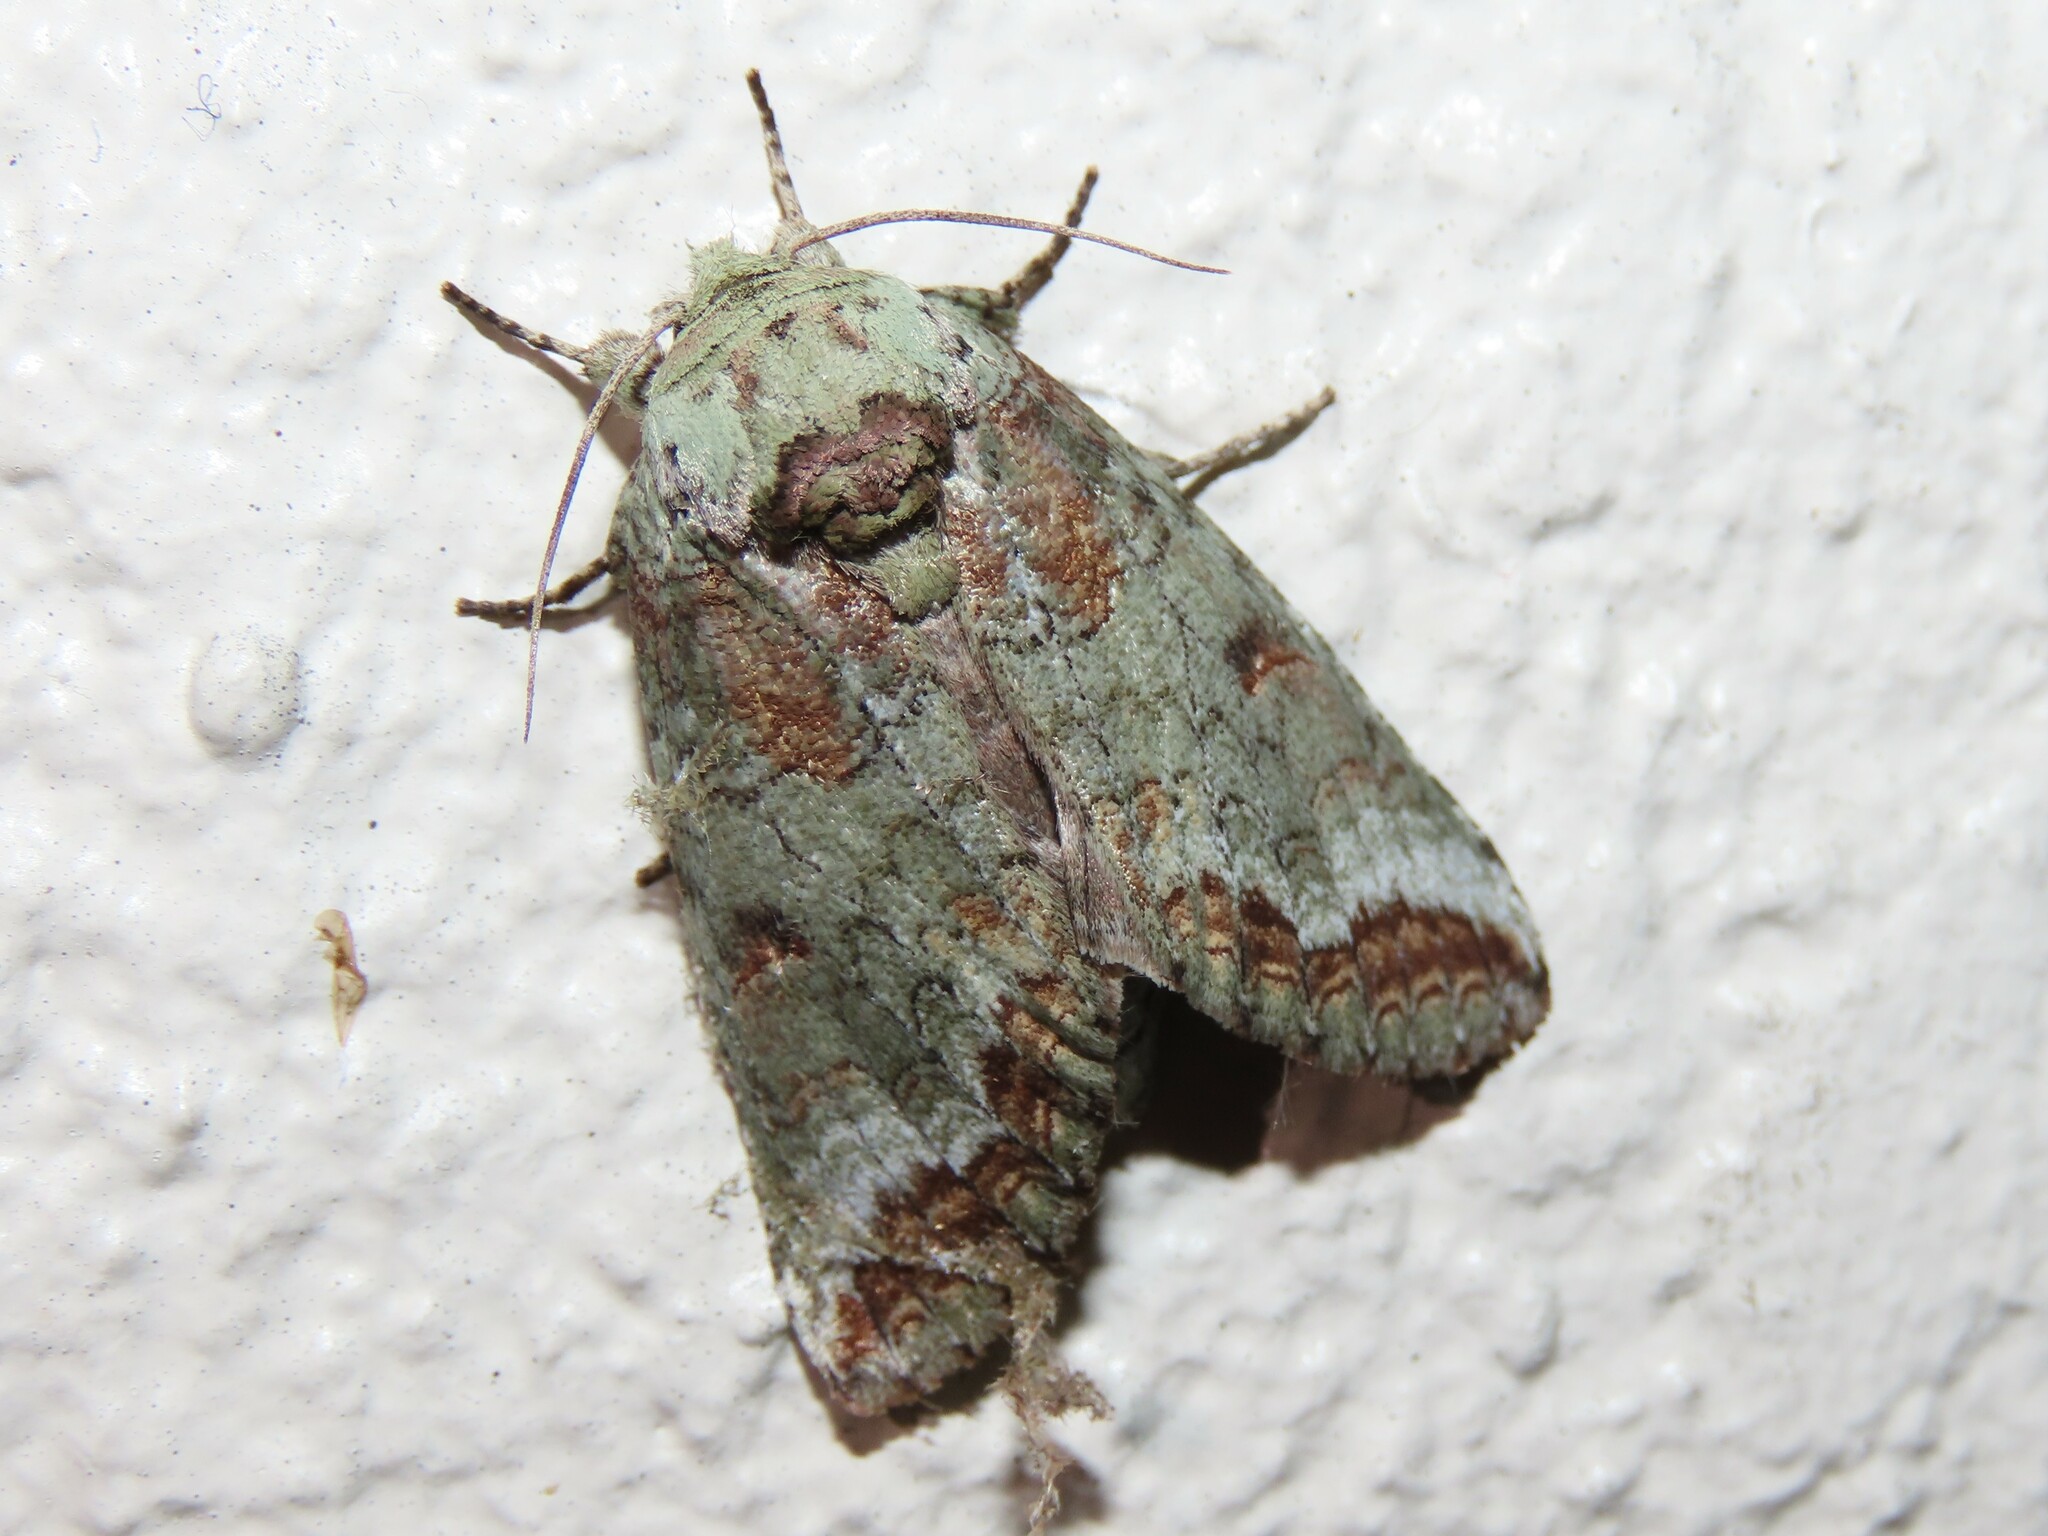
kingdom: Animalia
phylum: Arthropoda
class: Insecta
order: Lepidoptera
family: Notodontidae
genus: Heterocampa
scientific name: Heterocampa astarte
